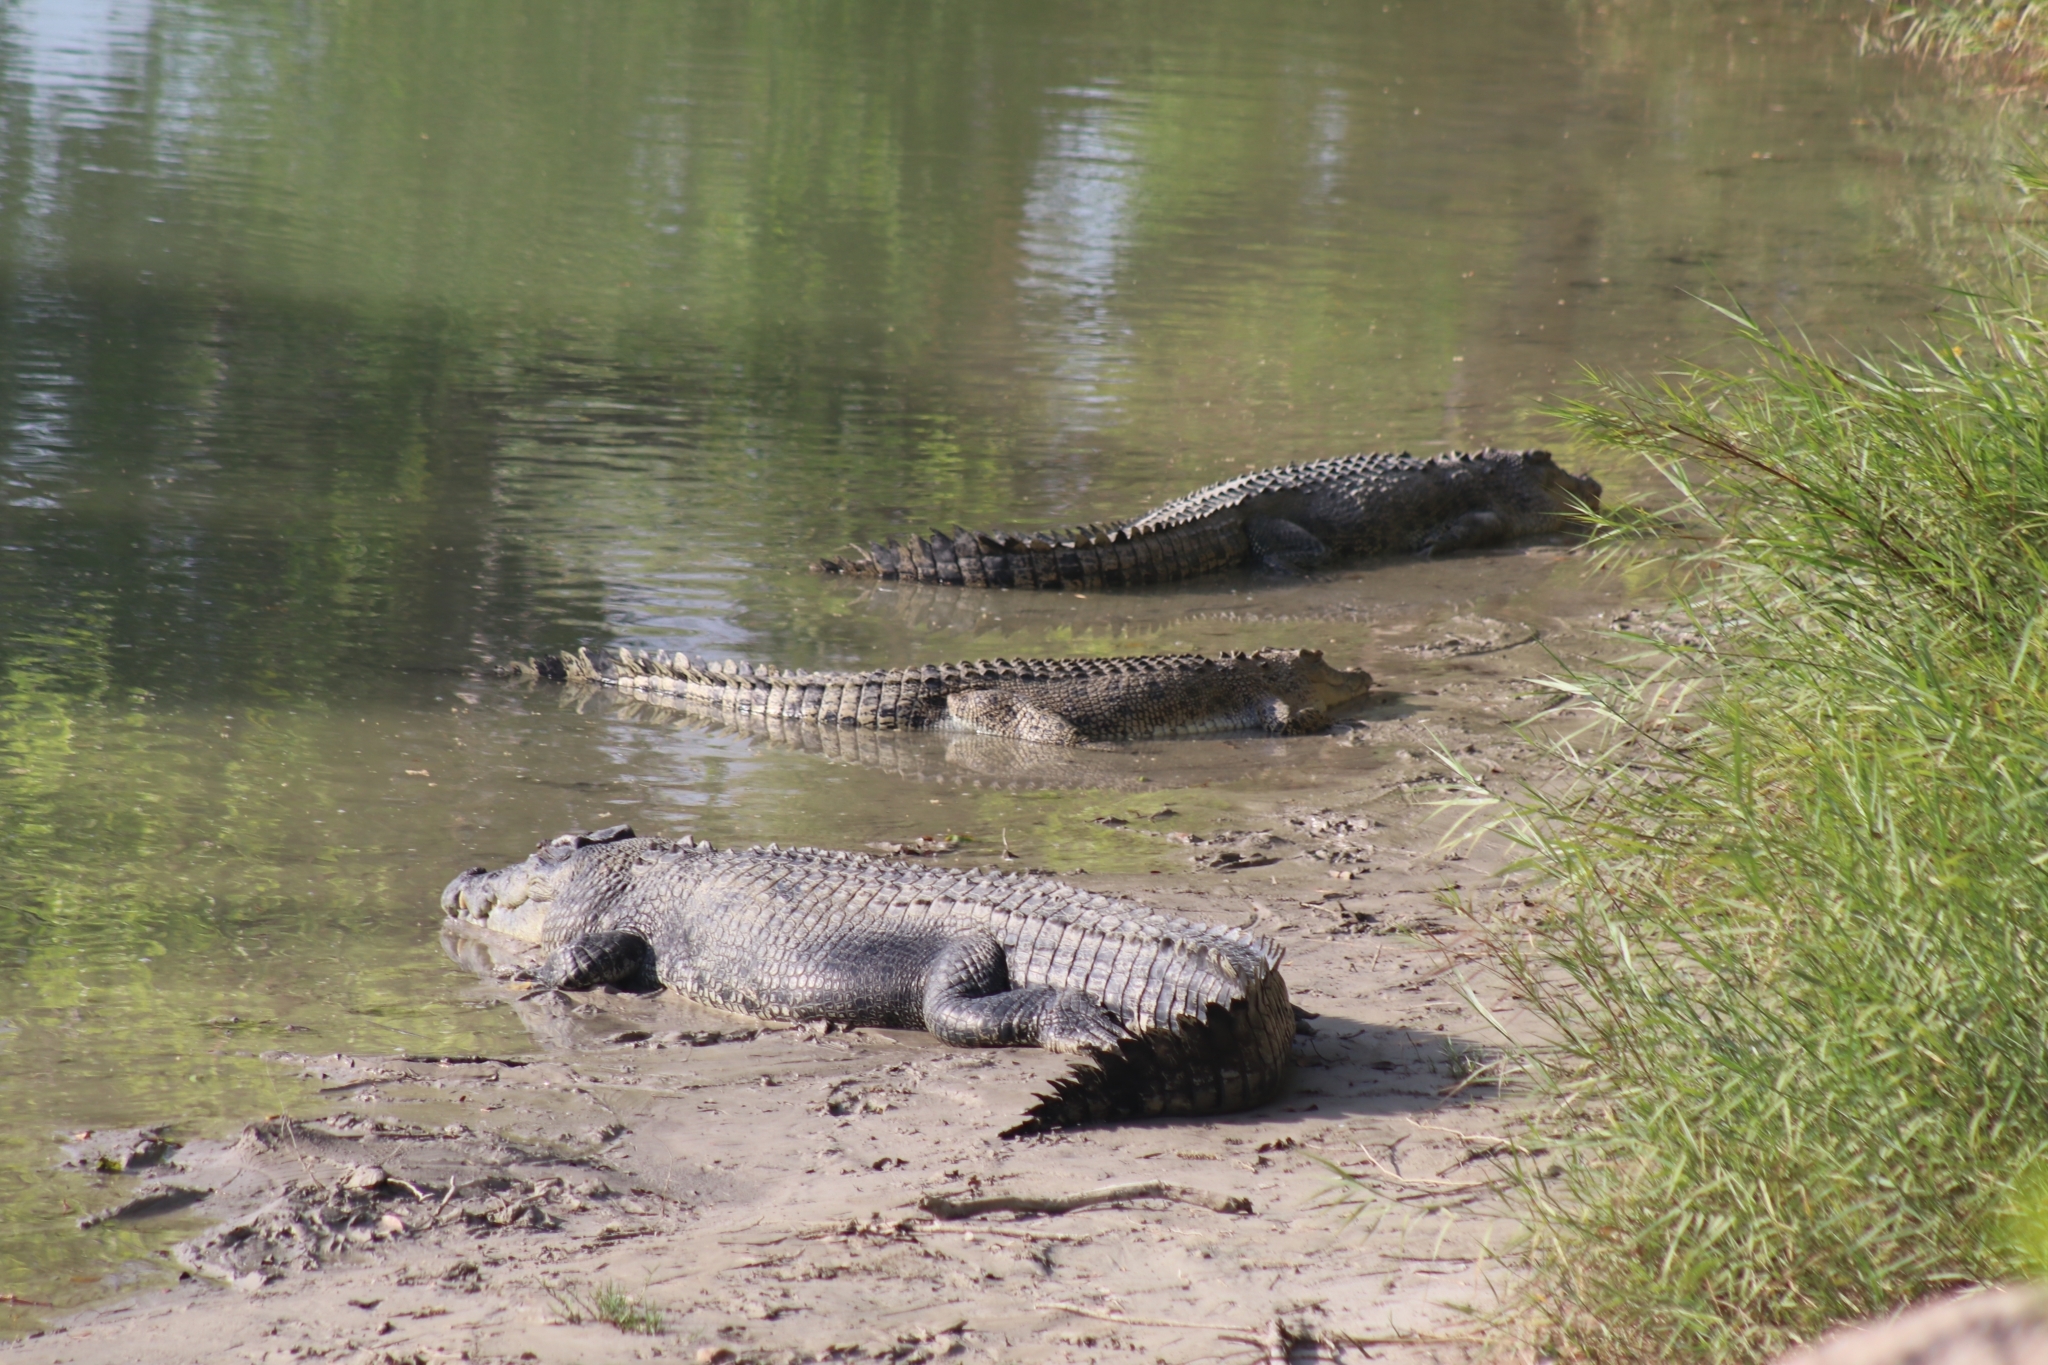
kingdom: Animalia
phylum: Chordata
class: Crocodylia
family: Crocodylidae
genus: Crocodylus
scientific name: Crocodylus porosus
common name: Saltwater crocodile
